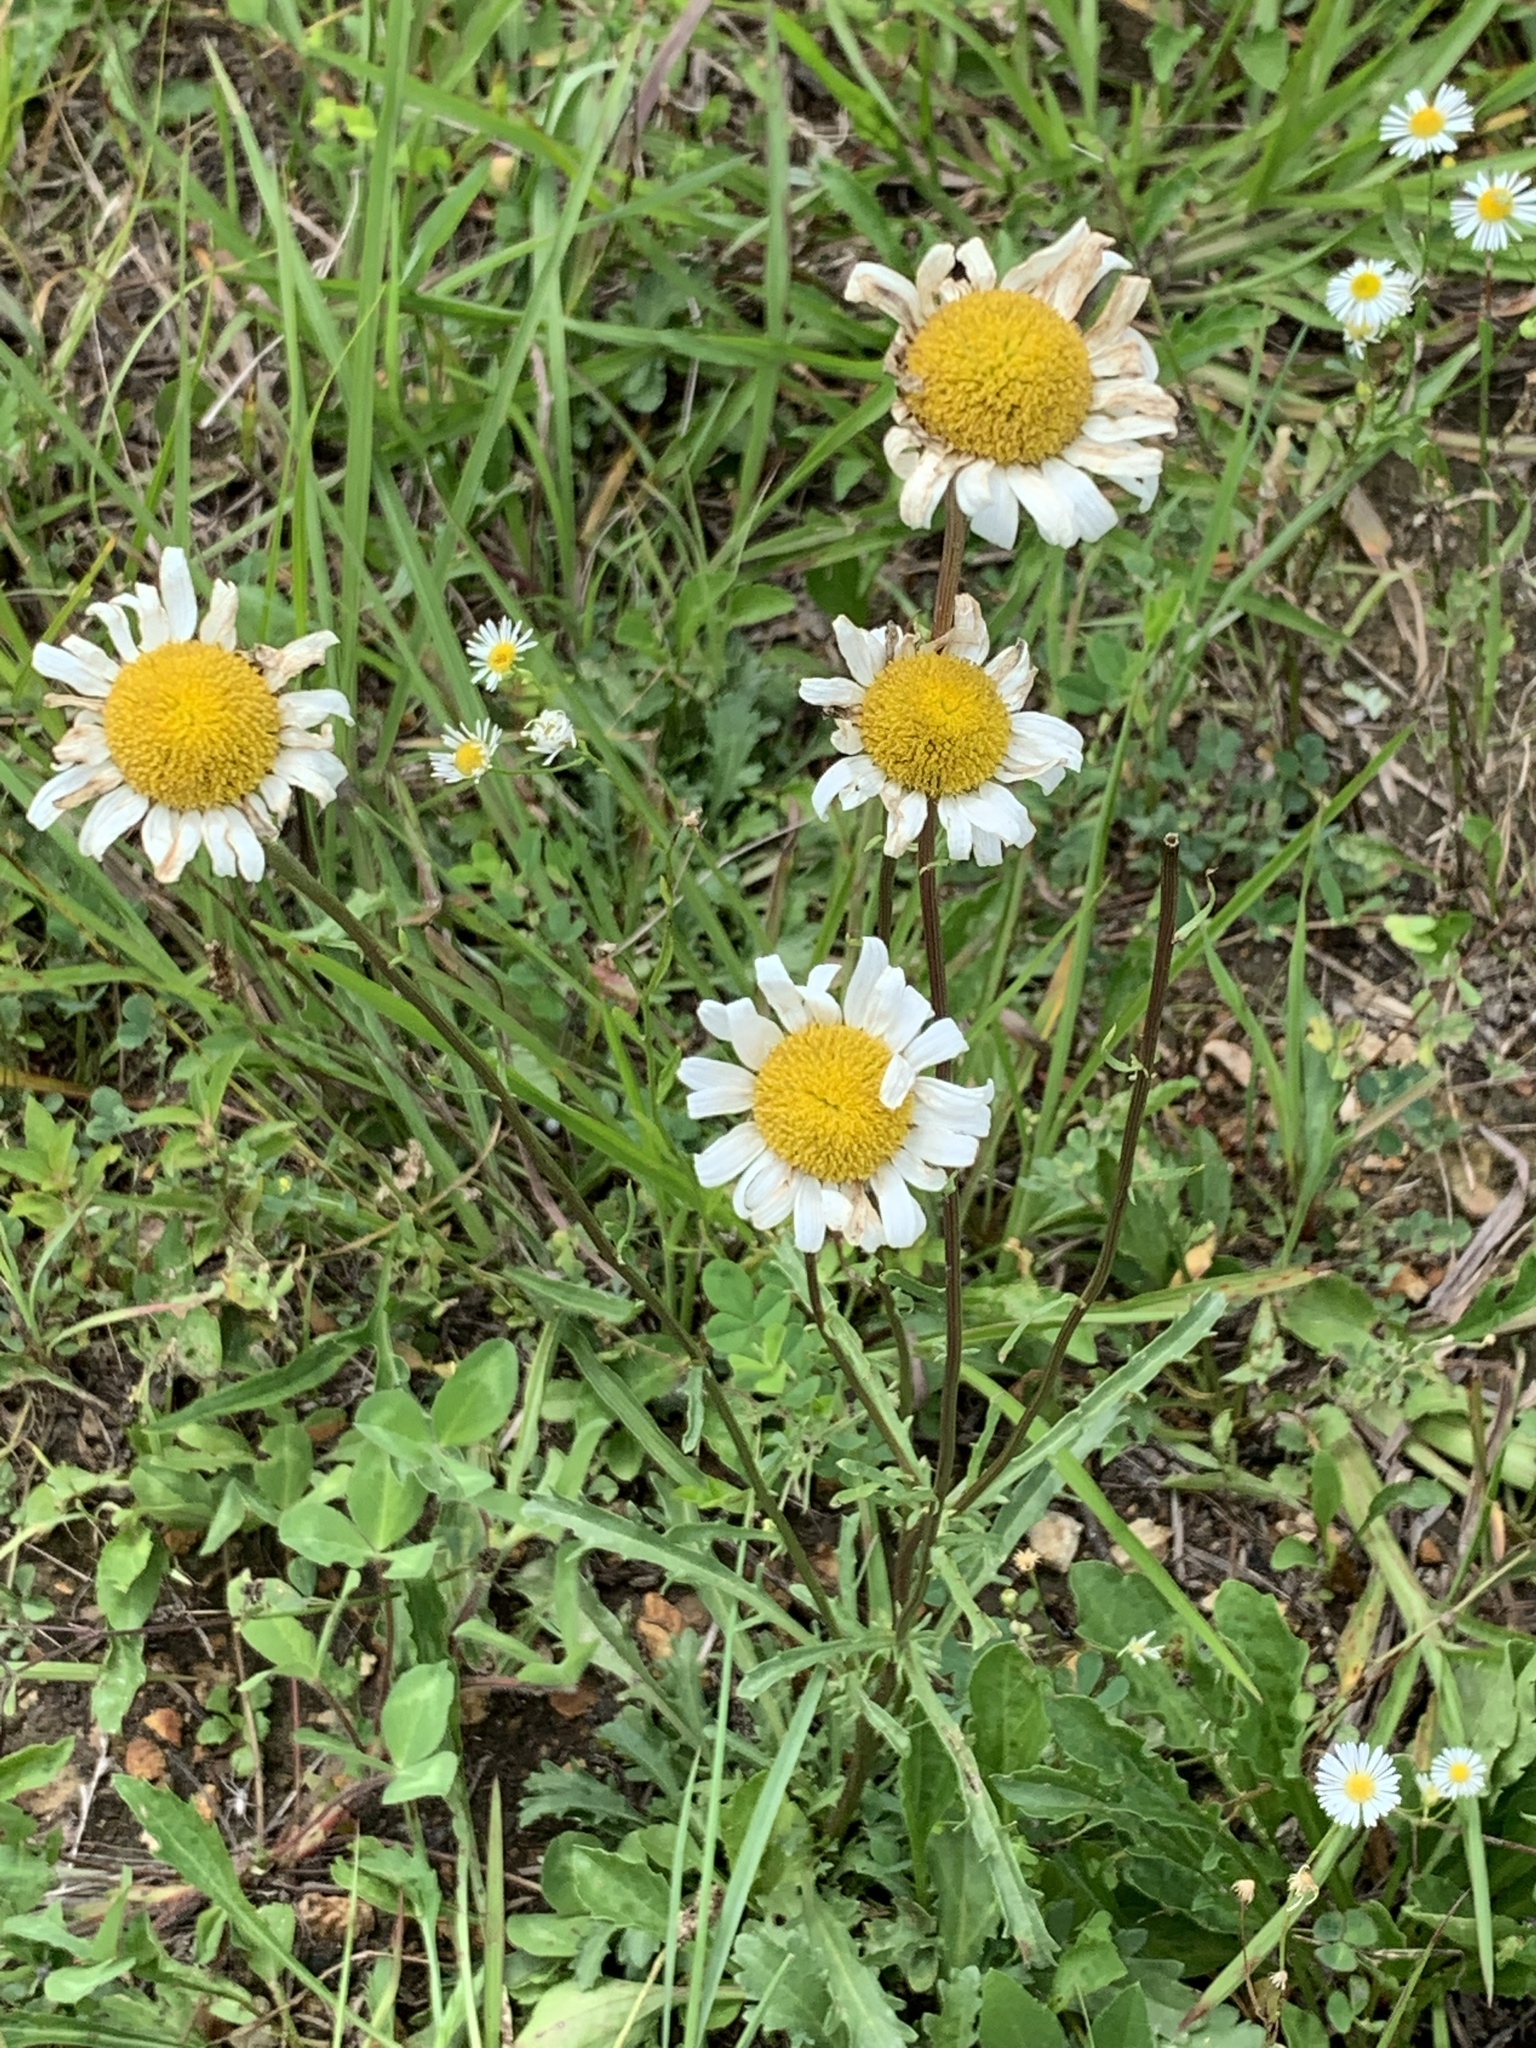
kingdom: Plantae
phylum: Tracheophyta
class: Magnoliopsida
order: Asterales
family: Asteraceae
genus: Leucanthemum
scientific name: Leucanthemum vulgare
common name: Oxeye daisy
